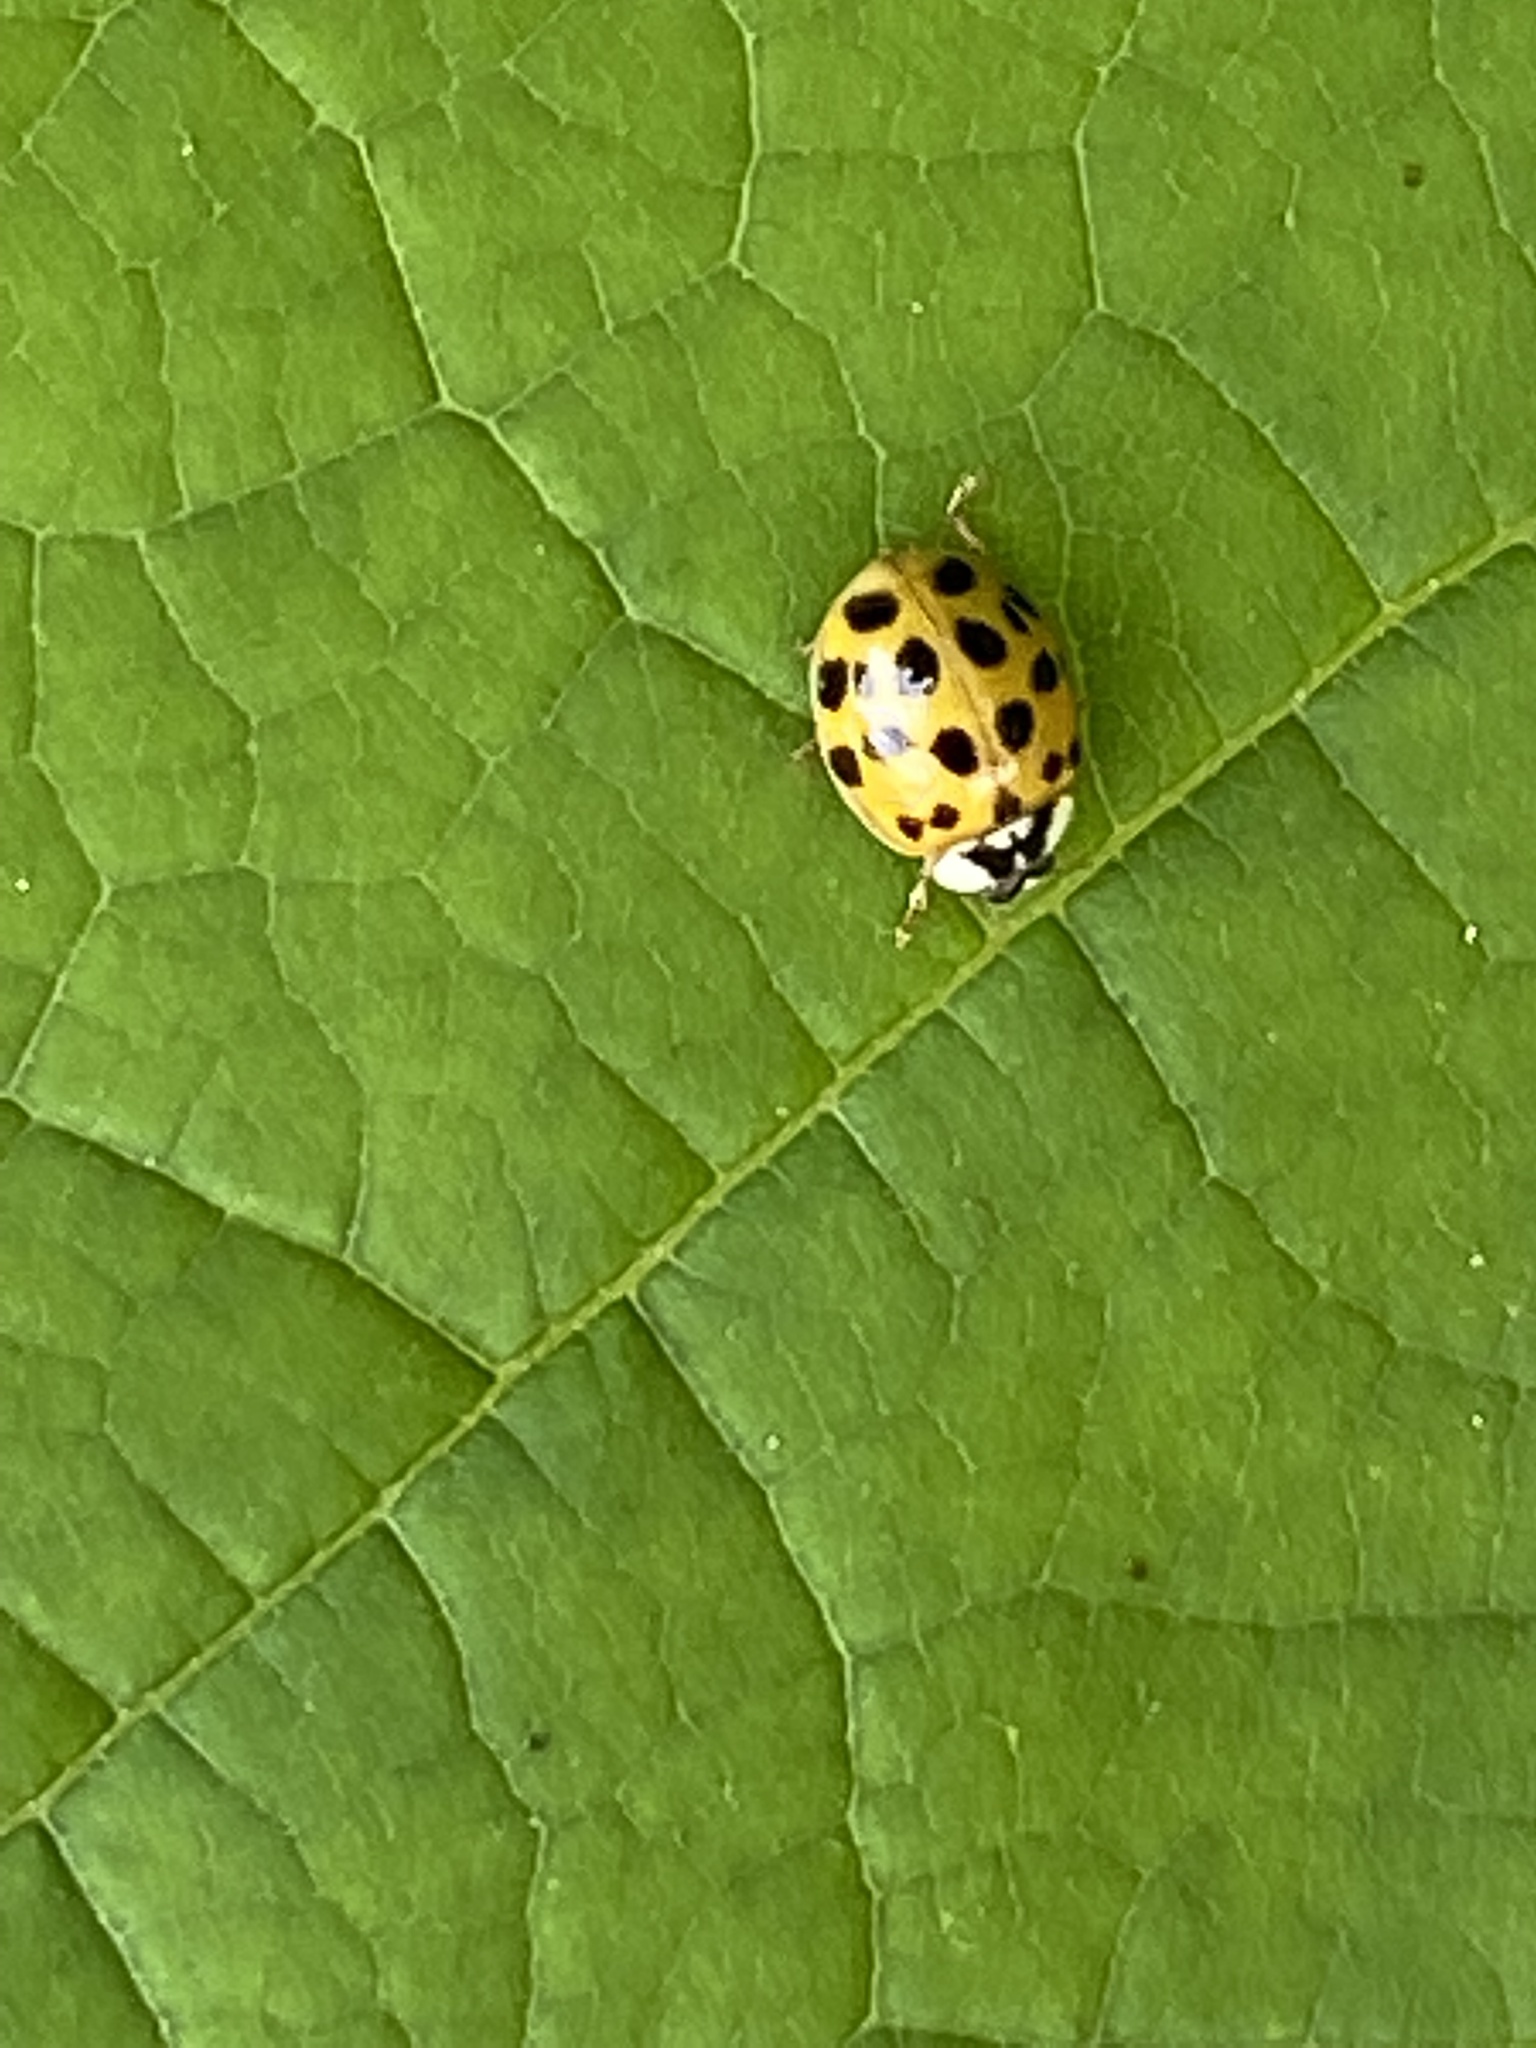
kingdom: Animalia
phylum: Arthropoda
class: Insecta
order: Coleoptera
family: Coccinellidae
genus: Harmonia
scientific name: Harmonia axyridis
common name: Harlequin ladybird
